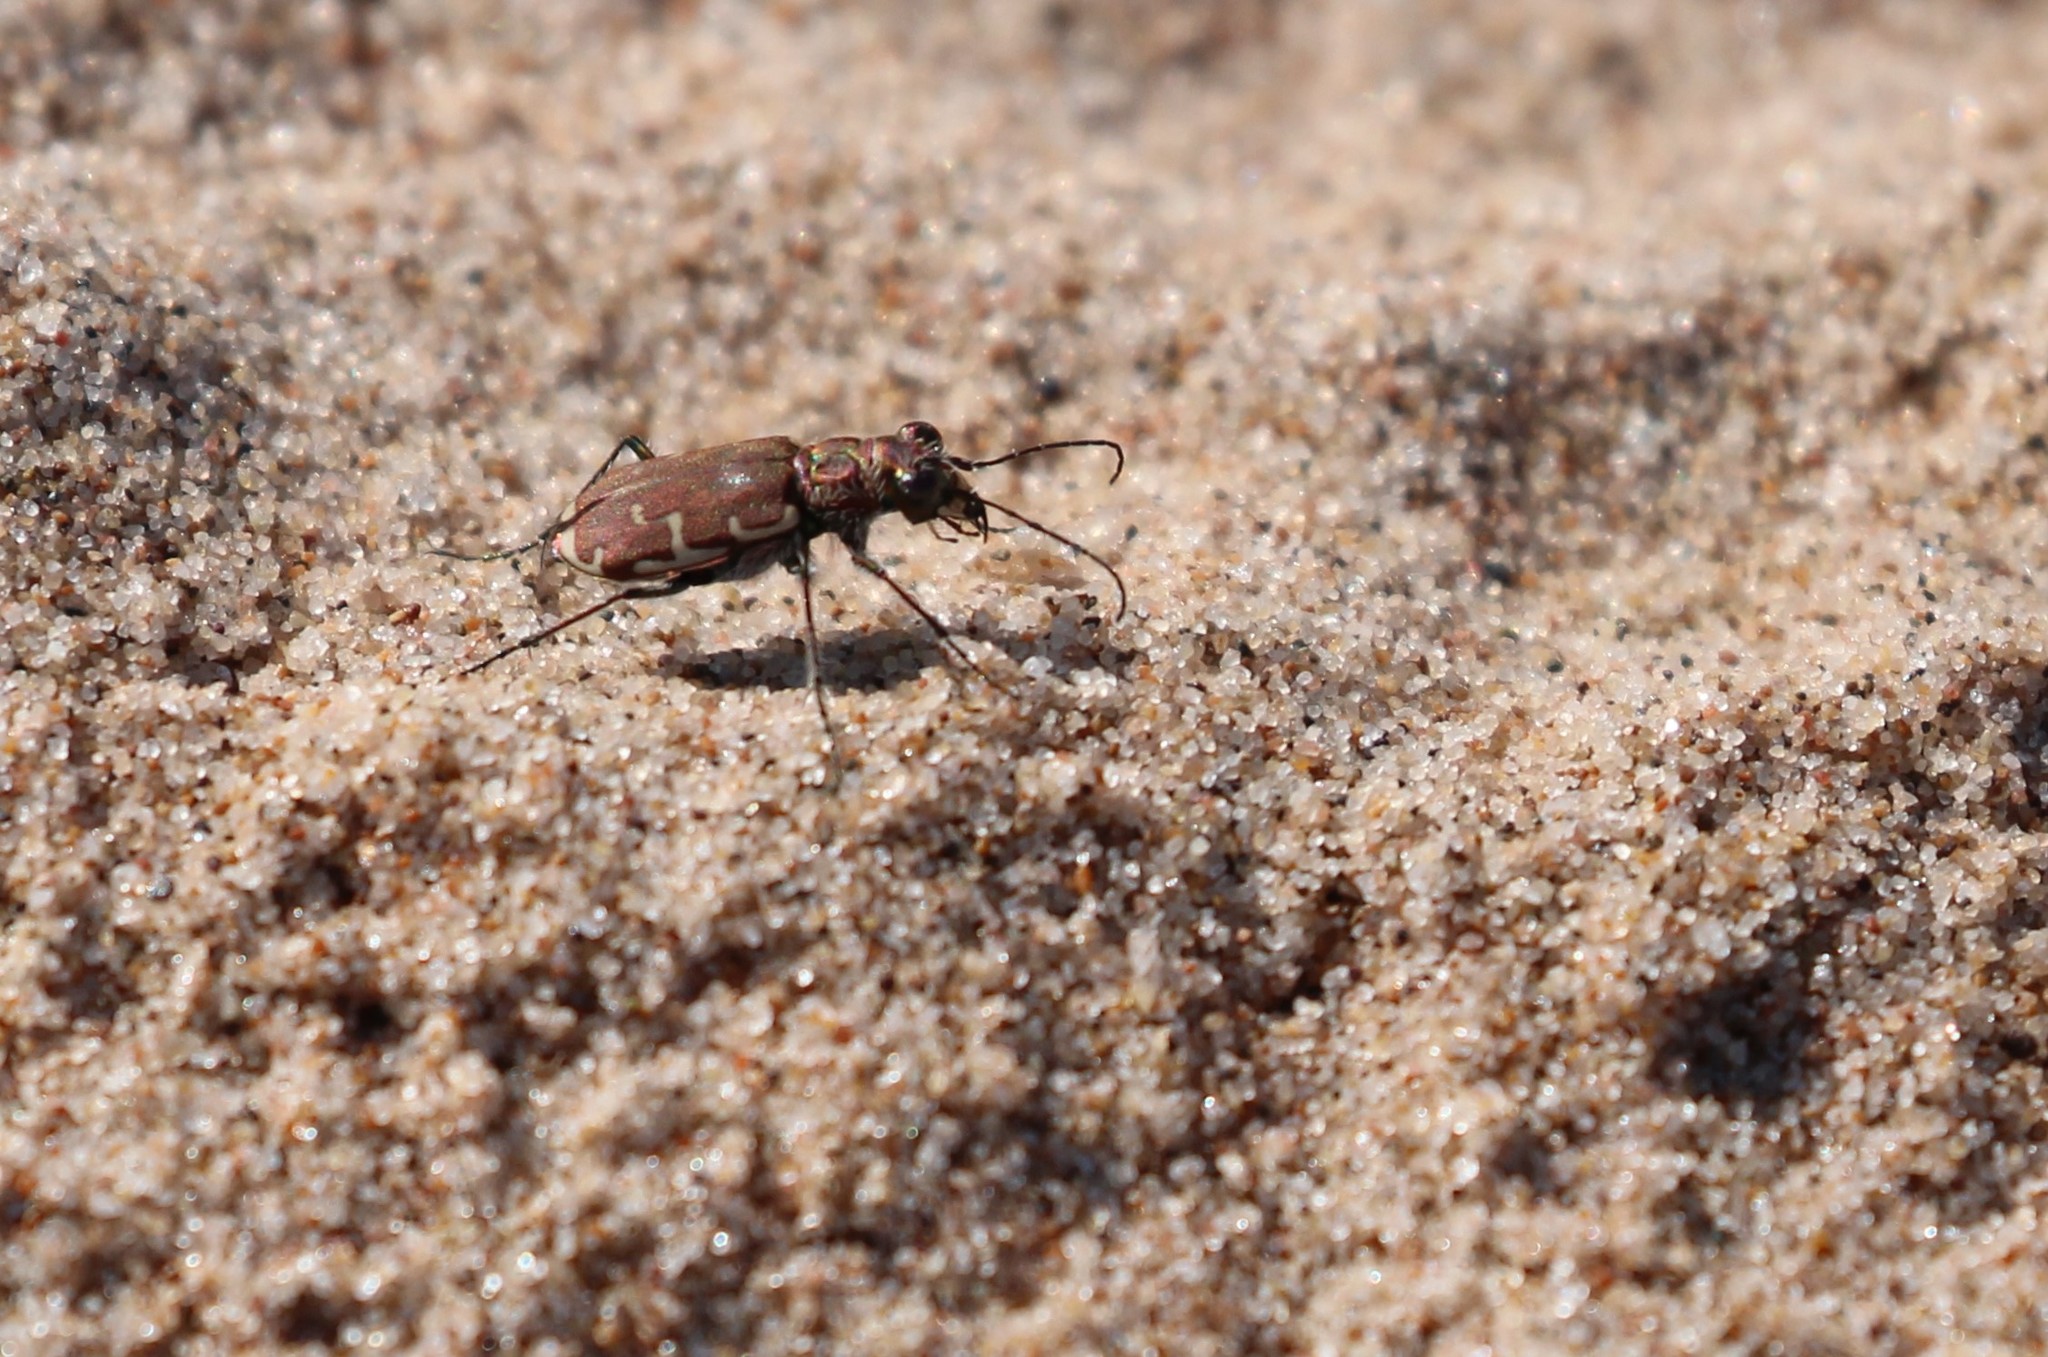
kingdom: Animalia
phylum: Arthropoda
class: Insecta
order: Coleoptera
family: Carabidae
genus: Cicindela
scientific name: Cicindela repanda
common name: Bronzed tiger beetle
